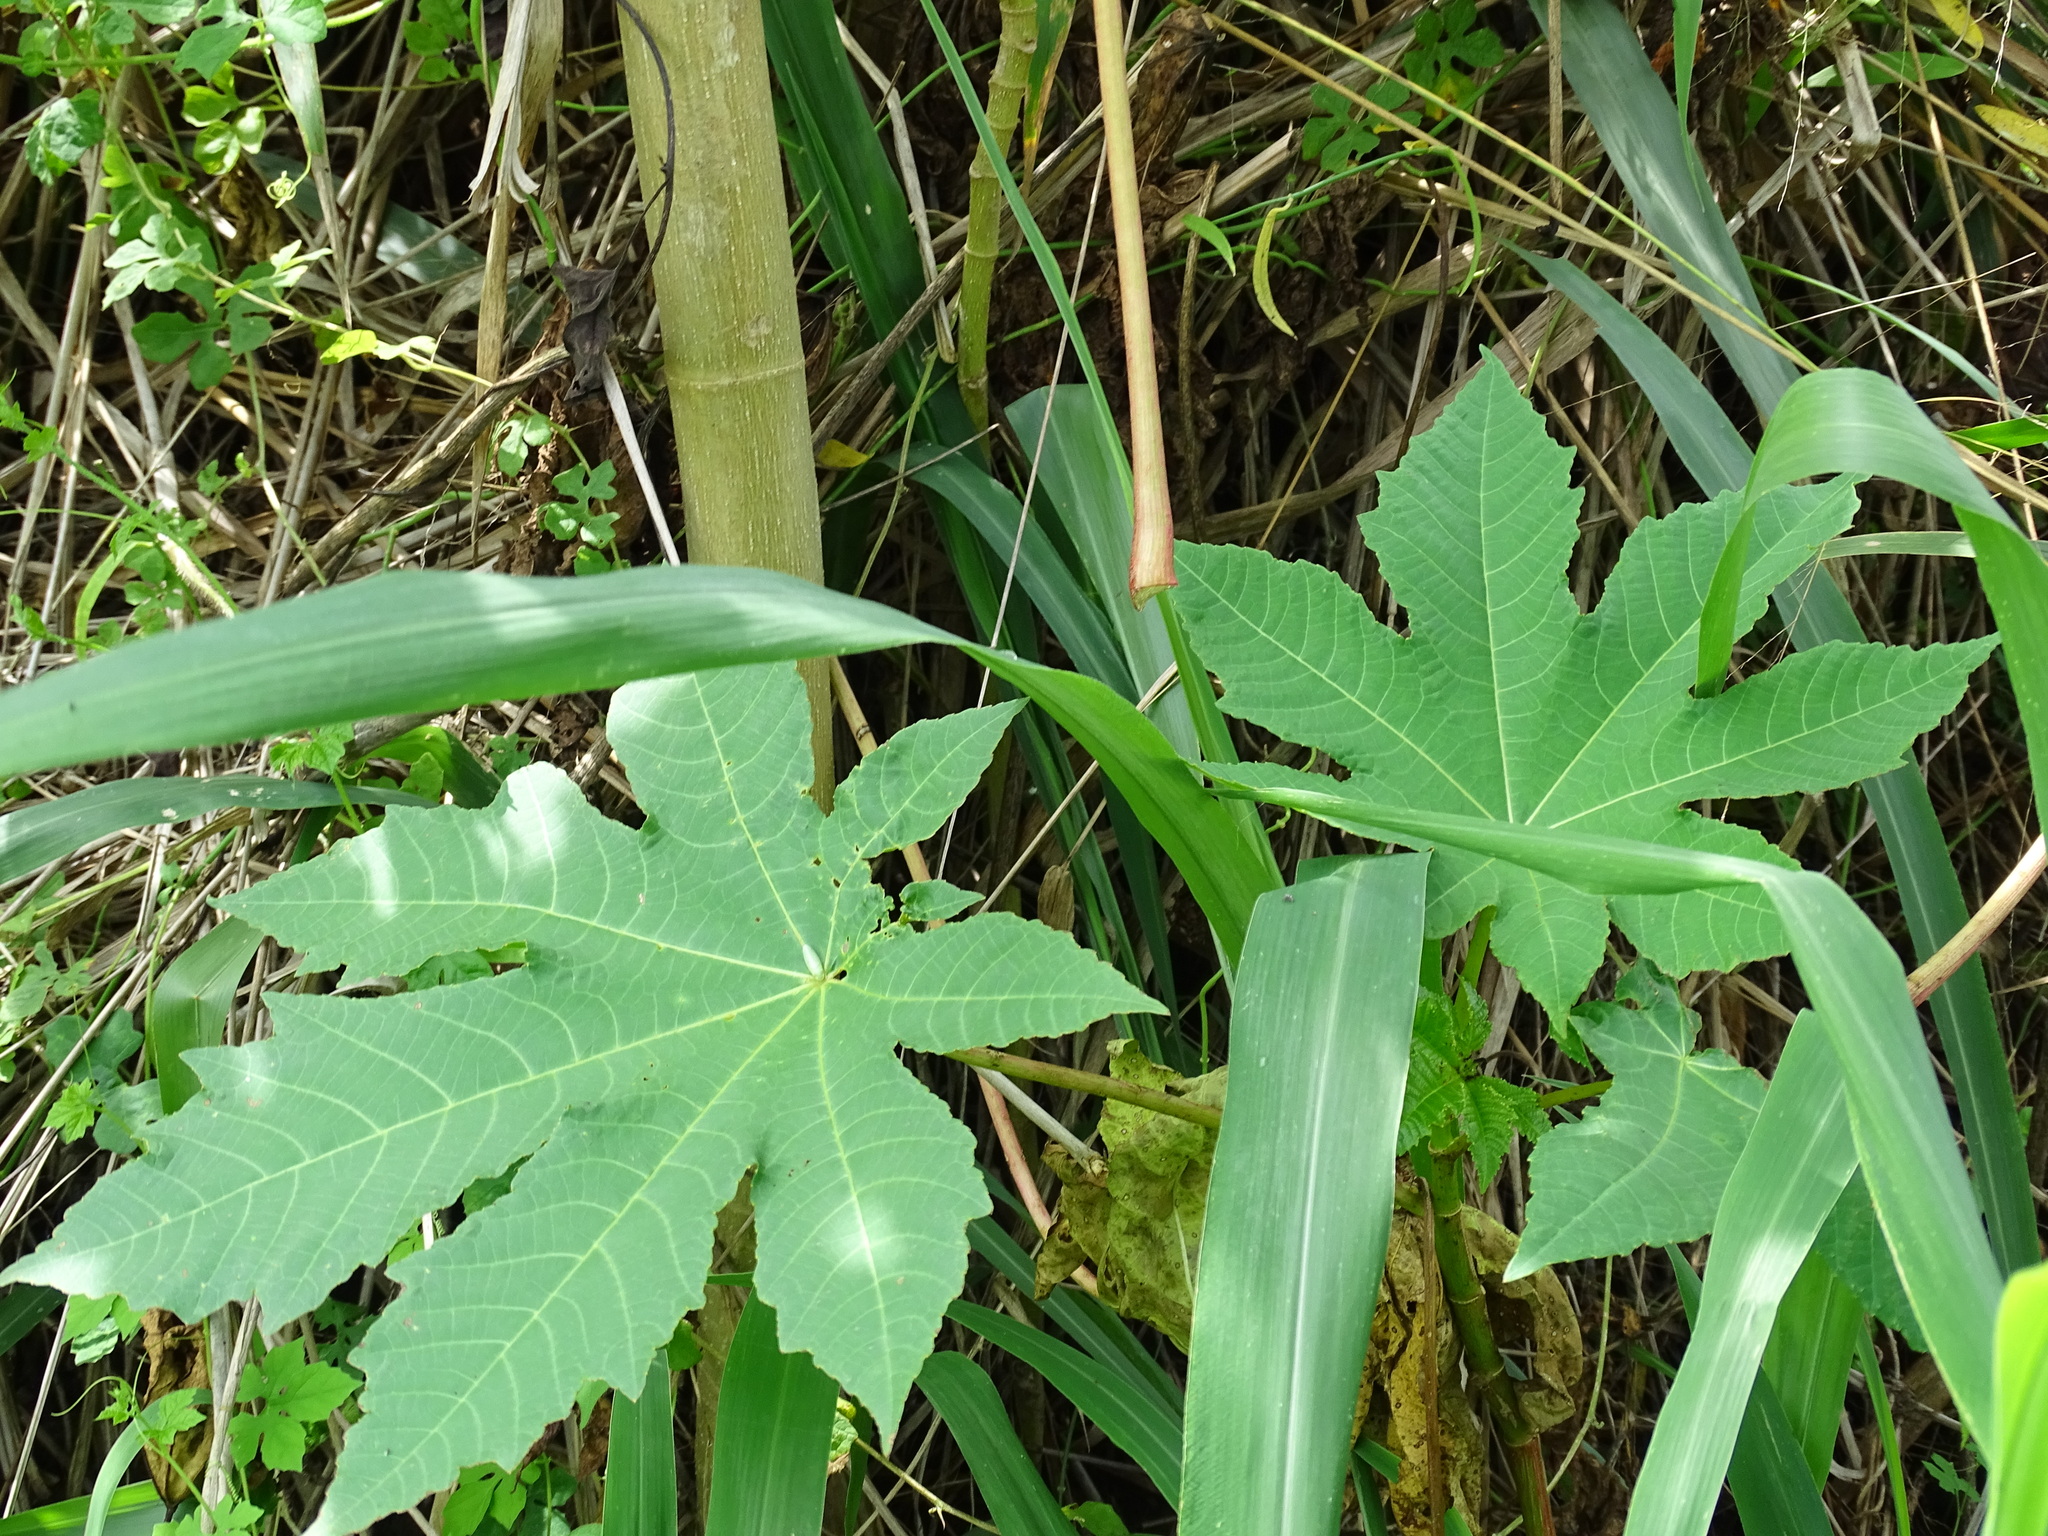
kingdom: Plantae
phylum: Tracheophyta
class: Magnoliopsida
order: Malpighiales
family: Euphorbiaceae
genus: Ricinus
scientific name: Ricinus communis
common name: Castor-oil-plant
